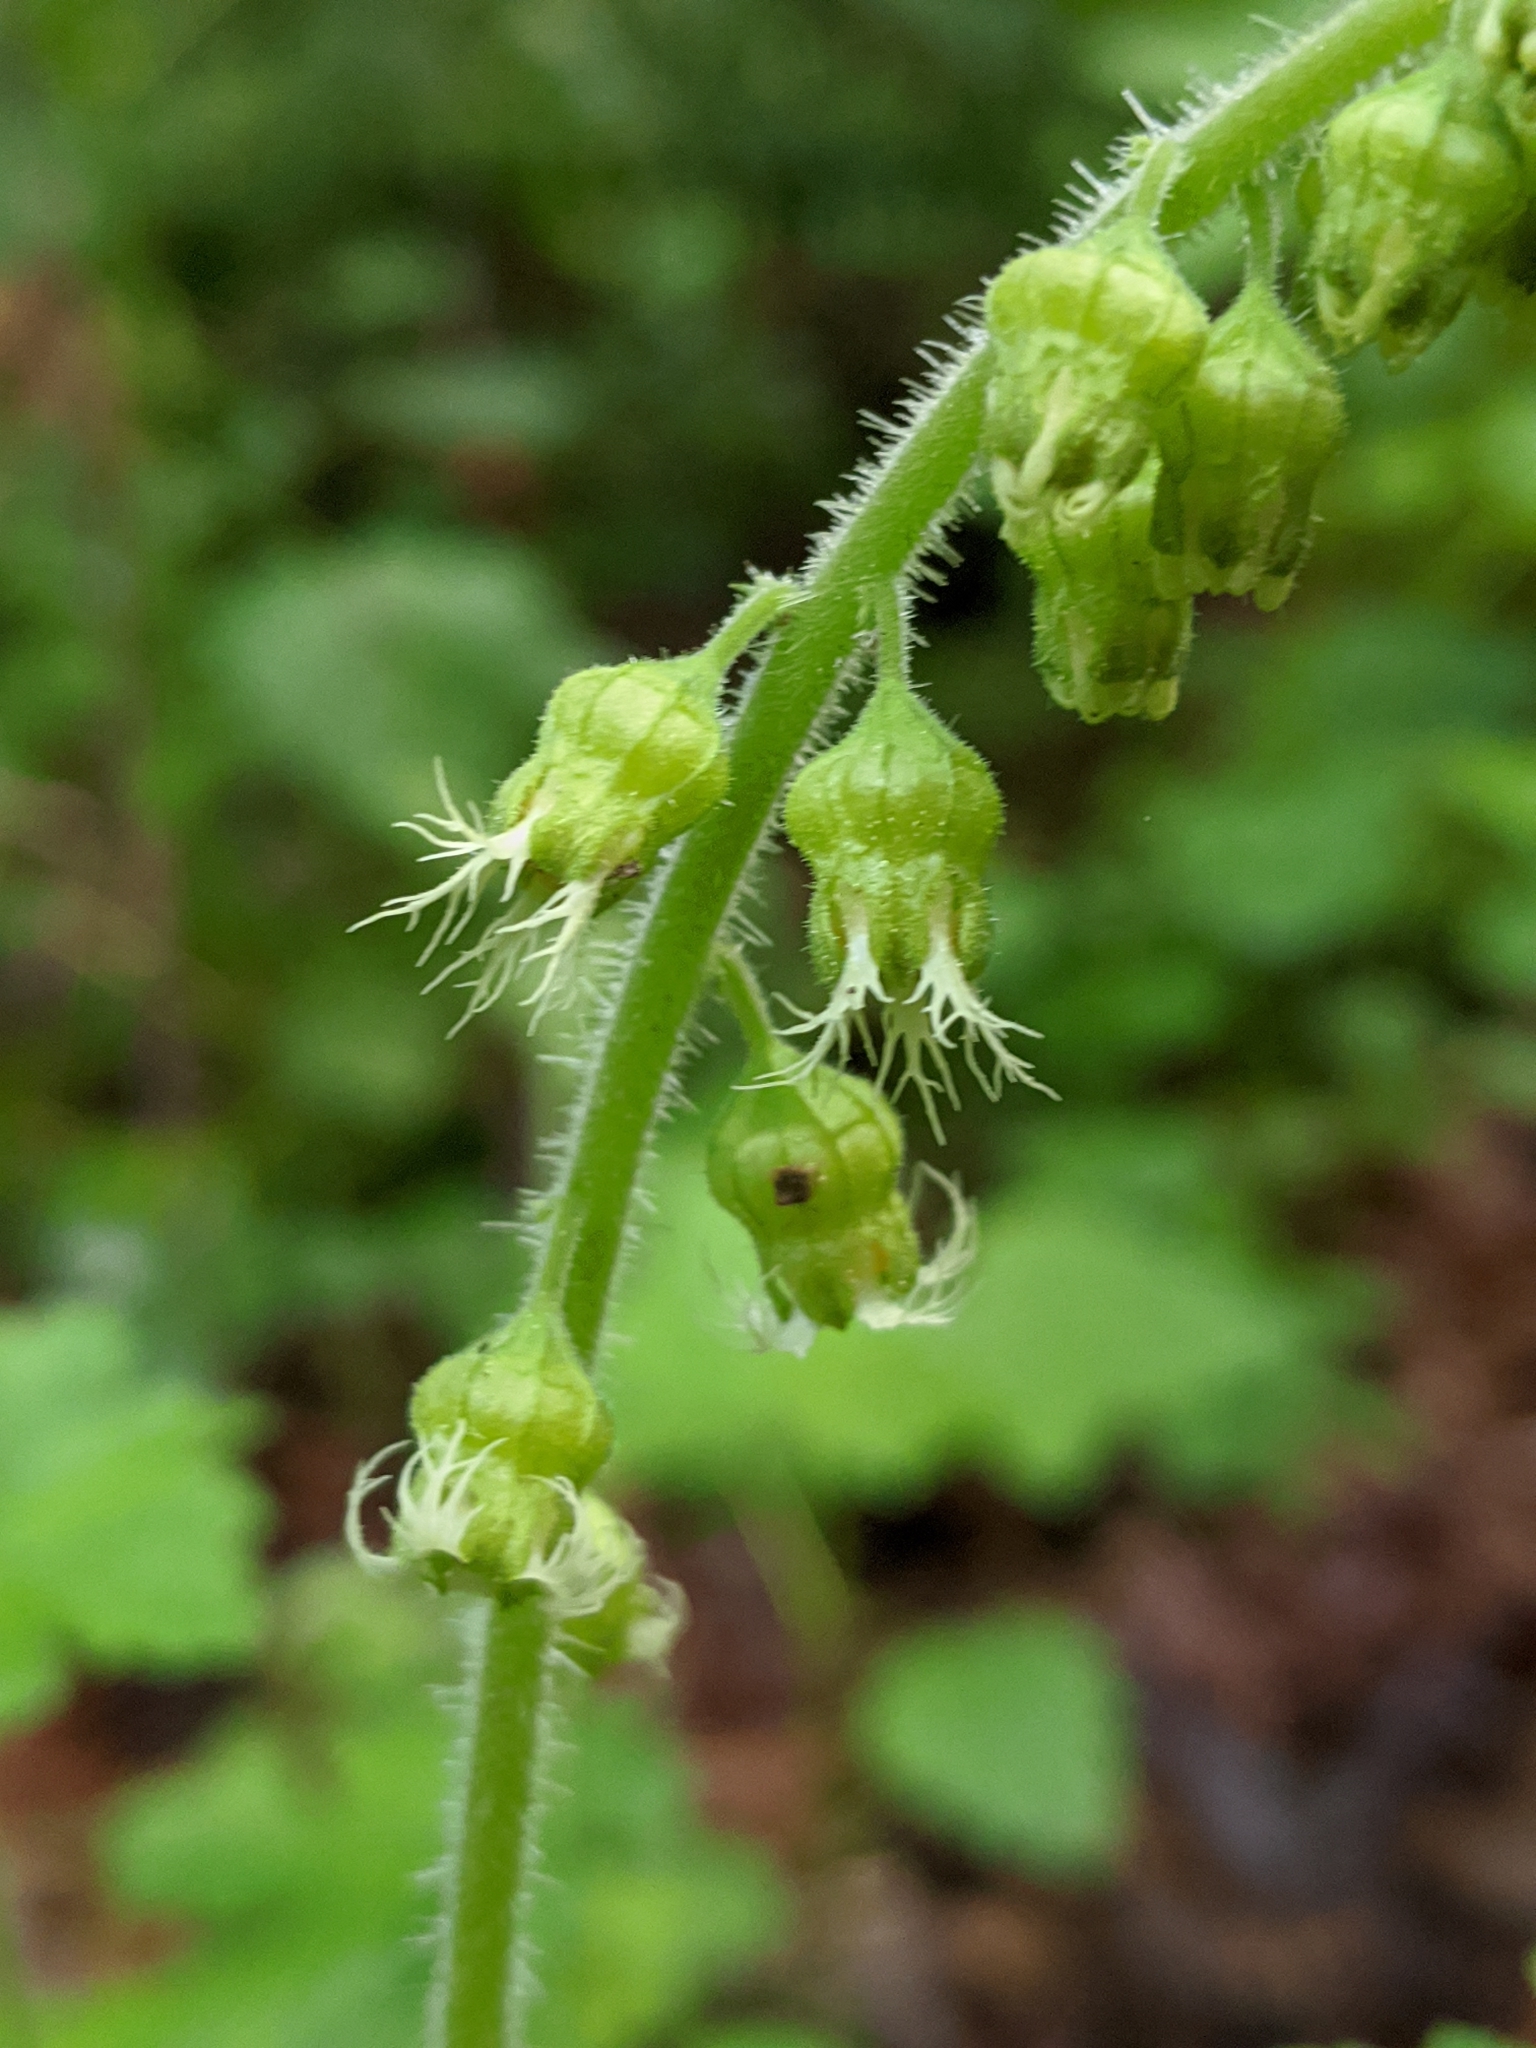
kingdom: Plantae
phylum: Tracheophyta
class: Magnoliopsida
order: Saxifragales
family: Saxifragaceae
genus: Tellima
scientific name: Tellima grandiflora
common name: Fringecups
